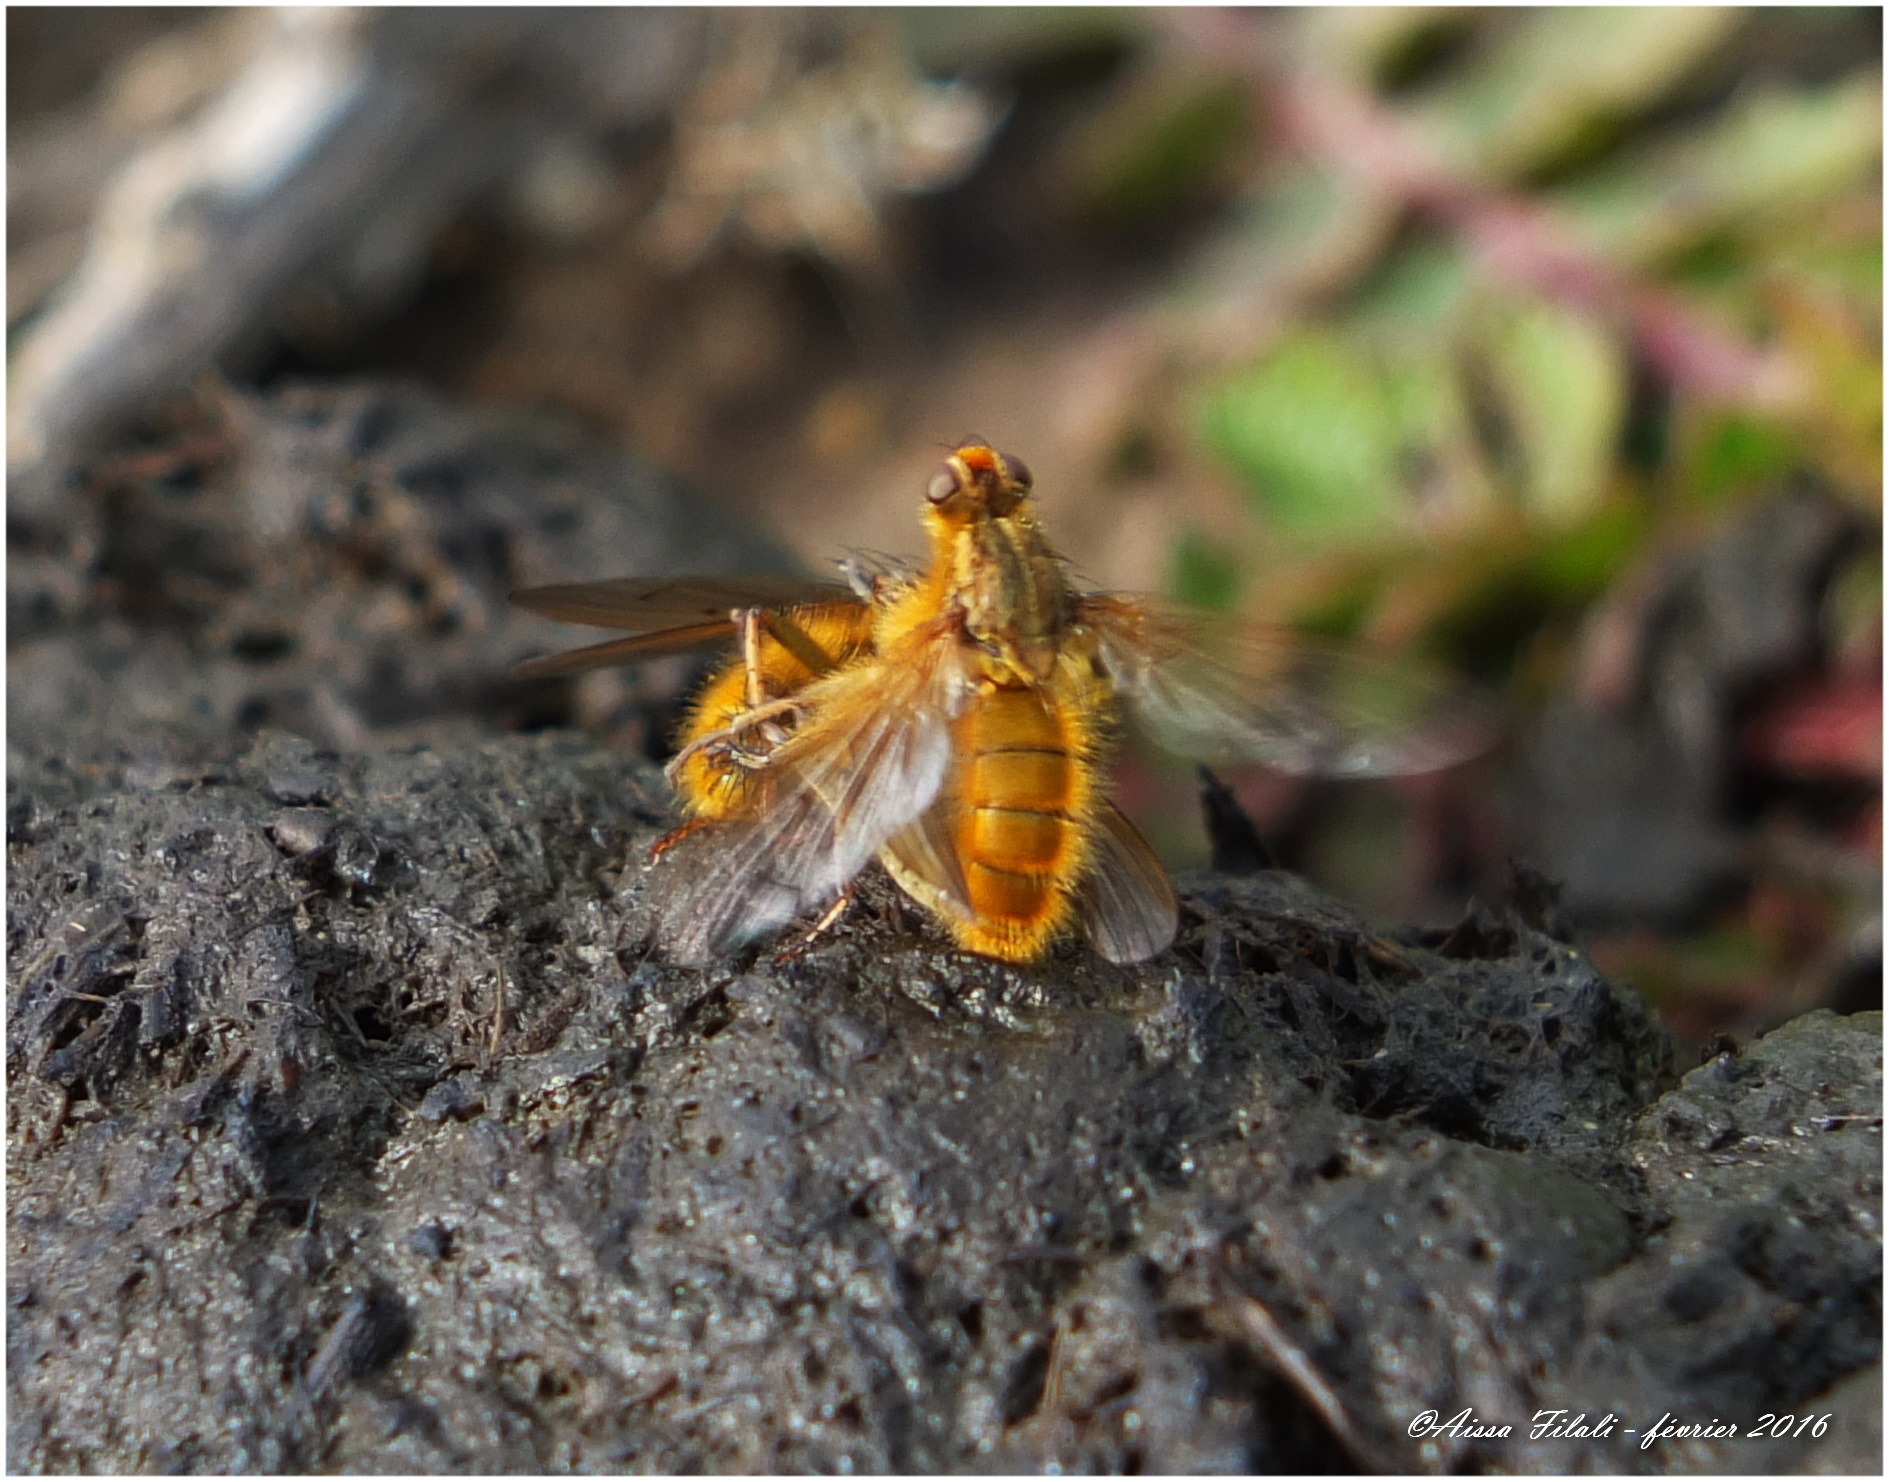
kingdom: Animalia
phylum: Arthropoda
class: Insecta
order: Diptera
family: Scathophagidae
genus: Scathophaga
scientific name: Scathophaga stercoraria
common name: Yellow dung fly
